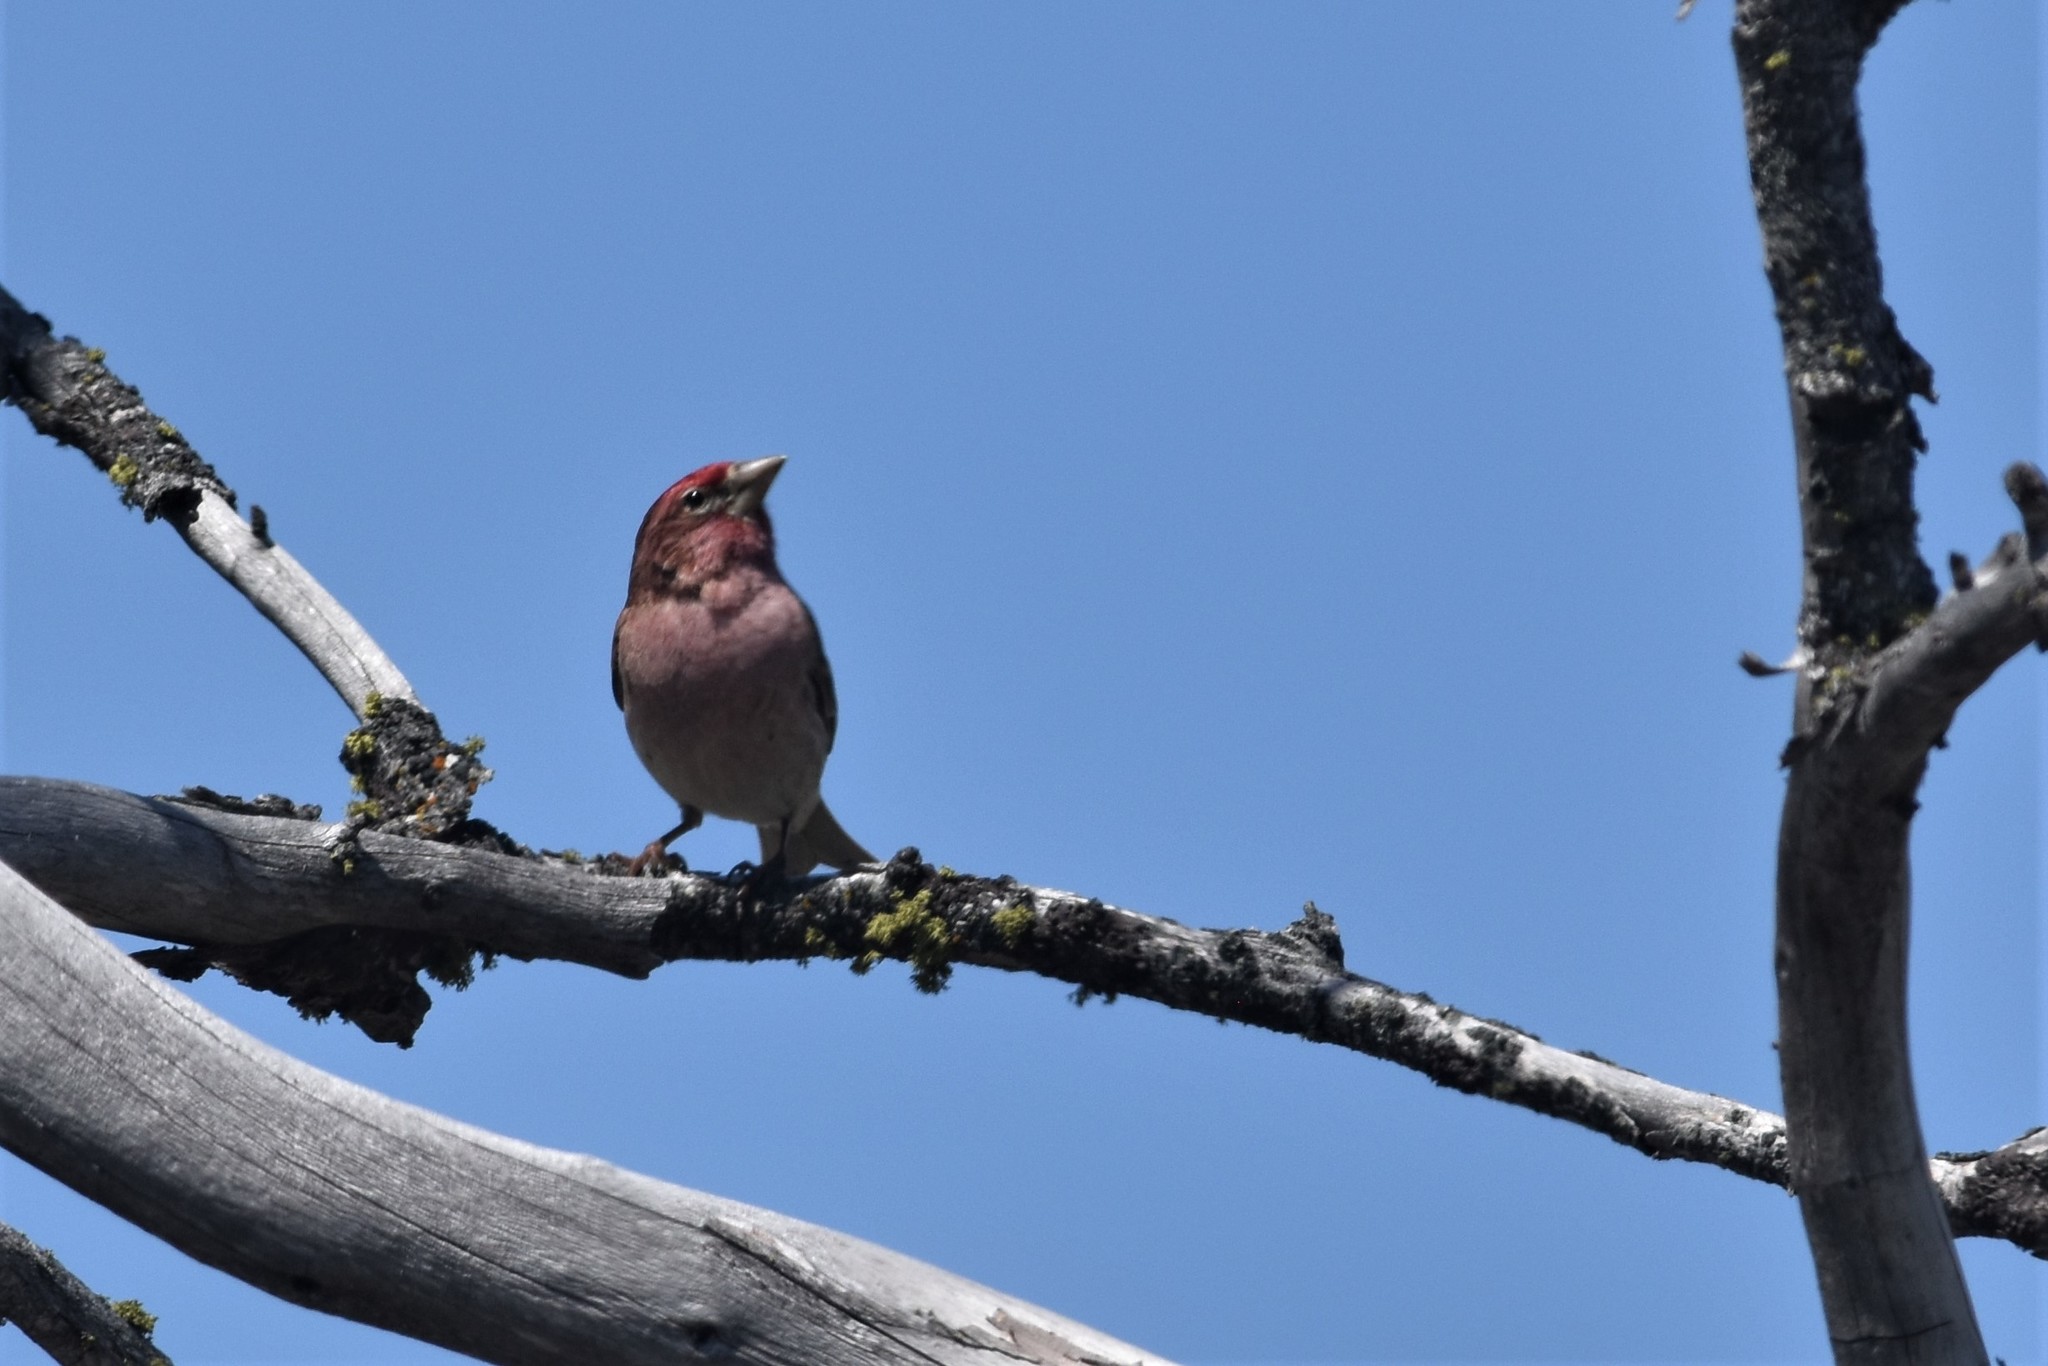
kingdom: Animalia
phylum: Chordata
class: Aves
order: Passeriformes
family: Fringillidae
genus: Haemorhous
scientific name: Haemorhous cassinii
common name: Cassin's finch
